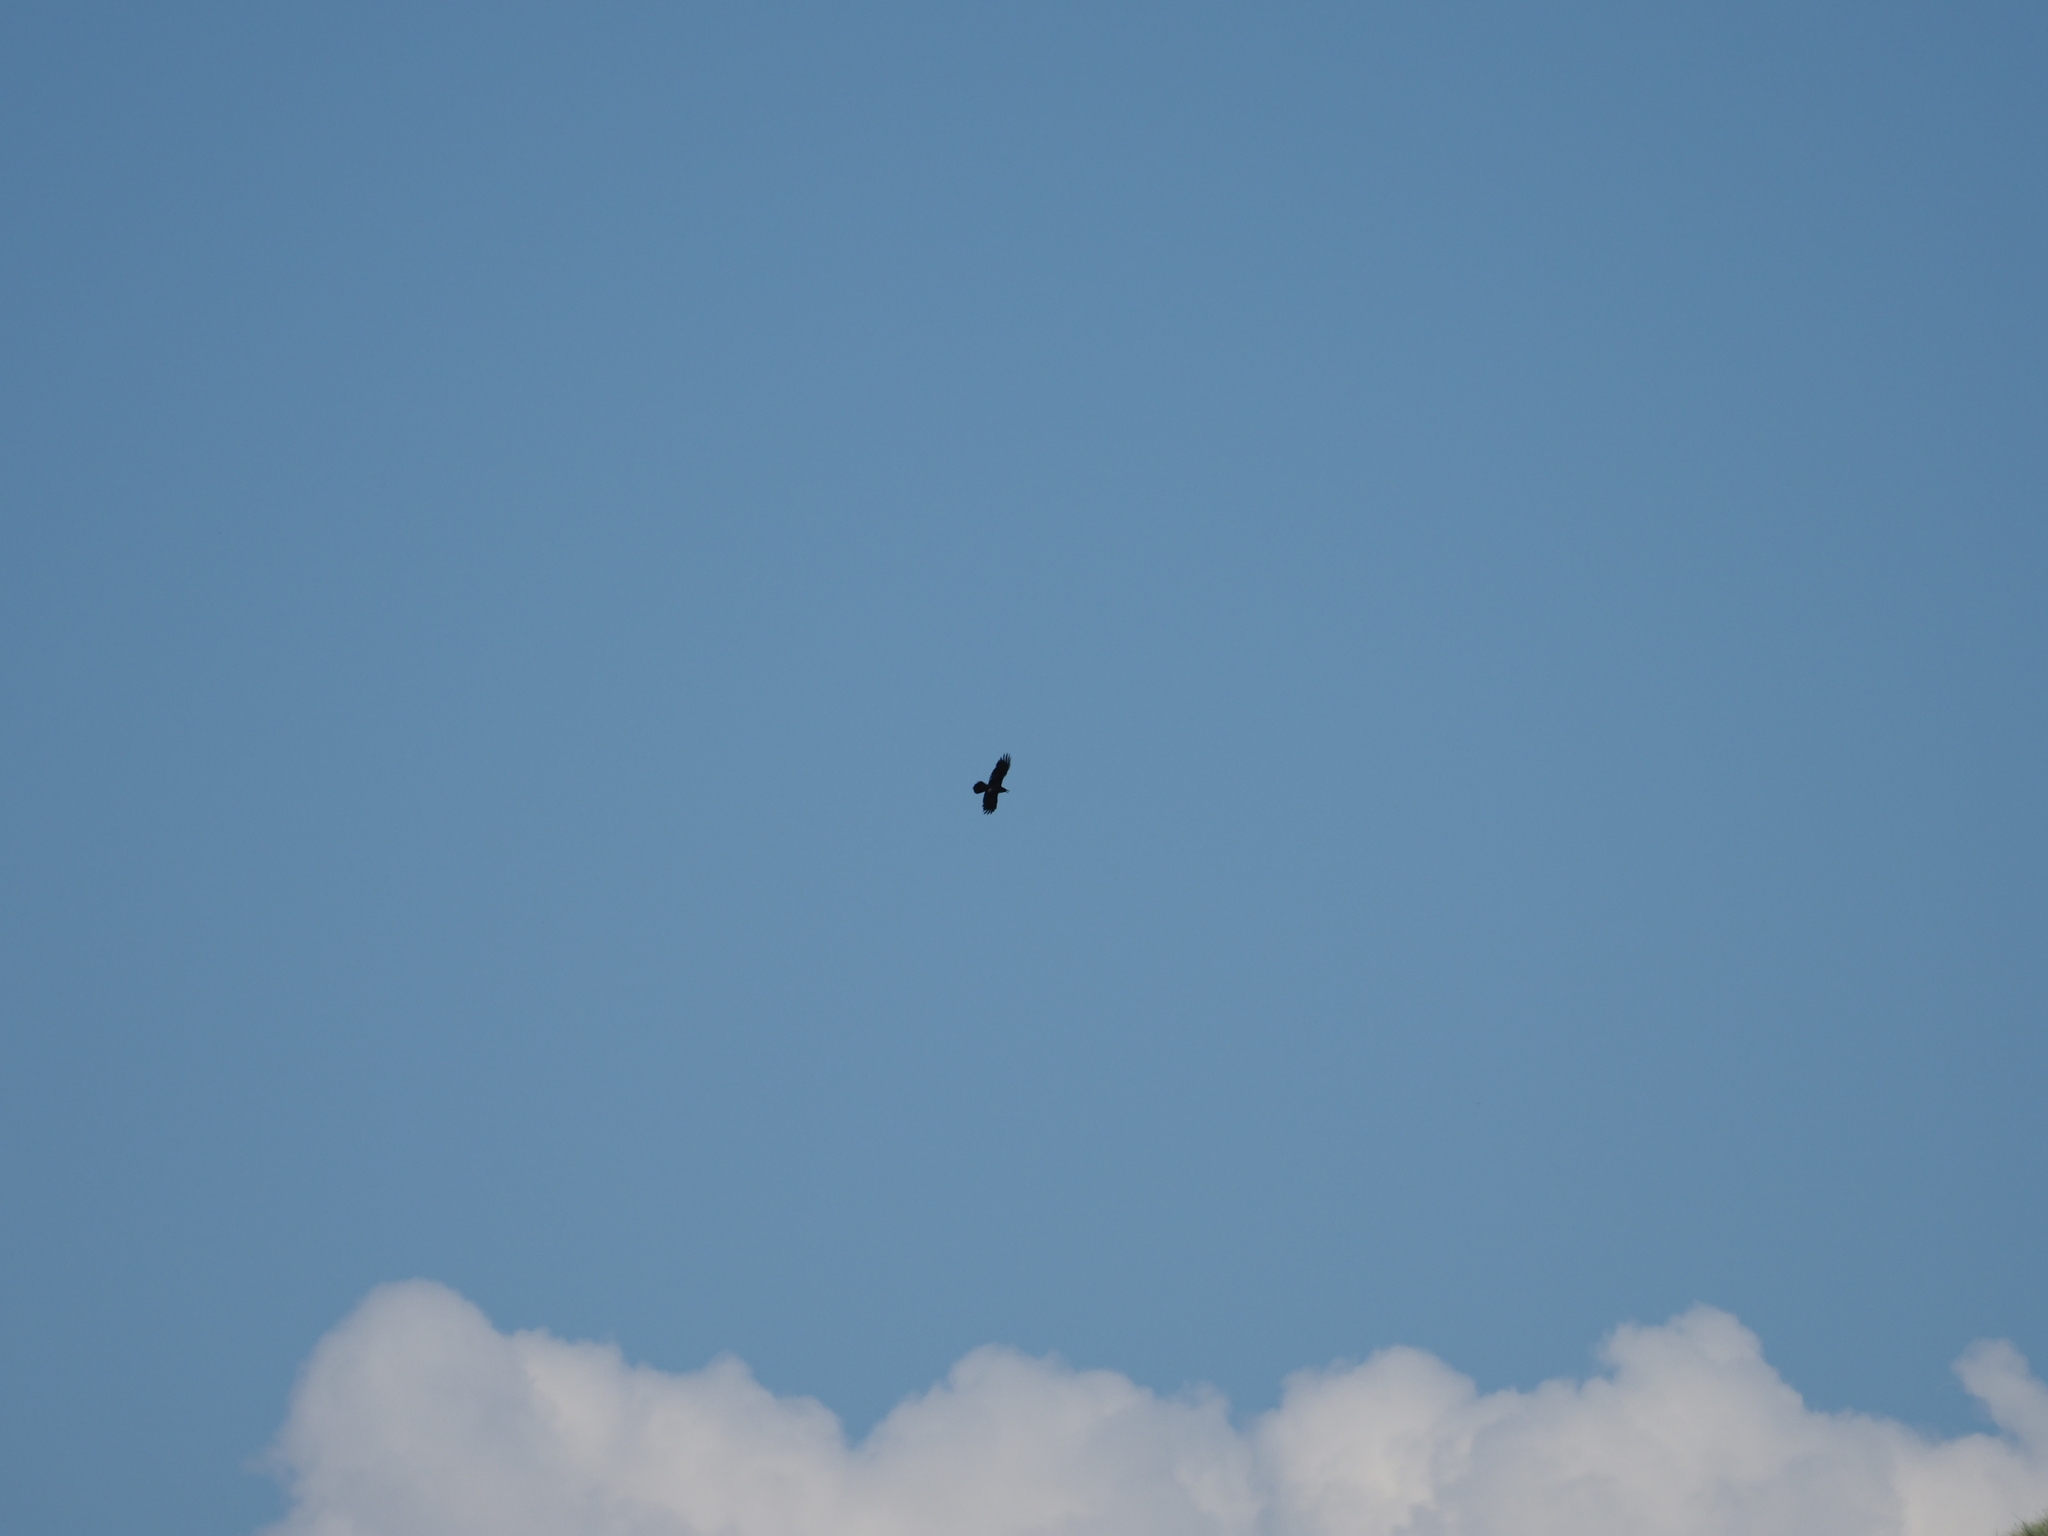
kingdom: Animalia
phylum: Chordata
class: Aves
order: Passeriformes
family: Corvidae
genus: Corvus
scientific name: Corvus corax
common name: Common raven
